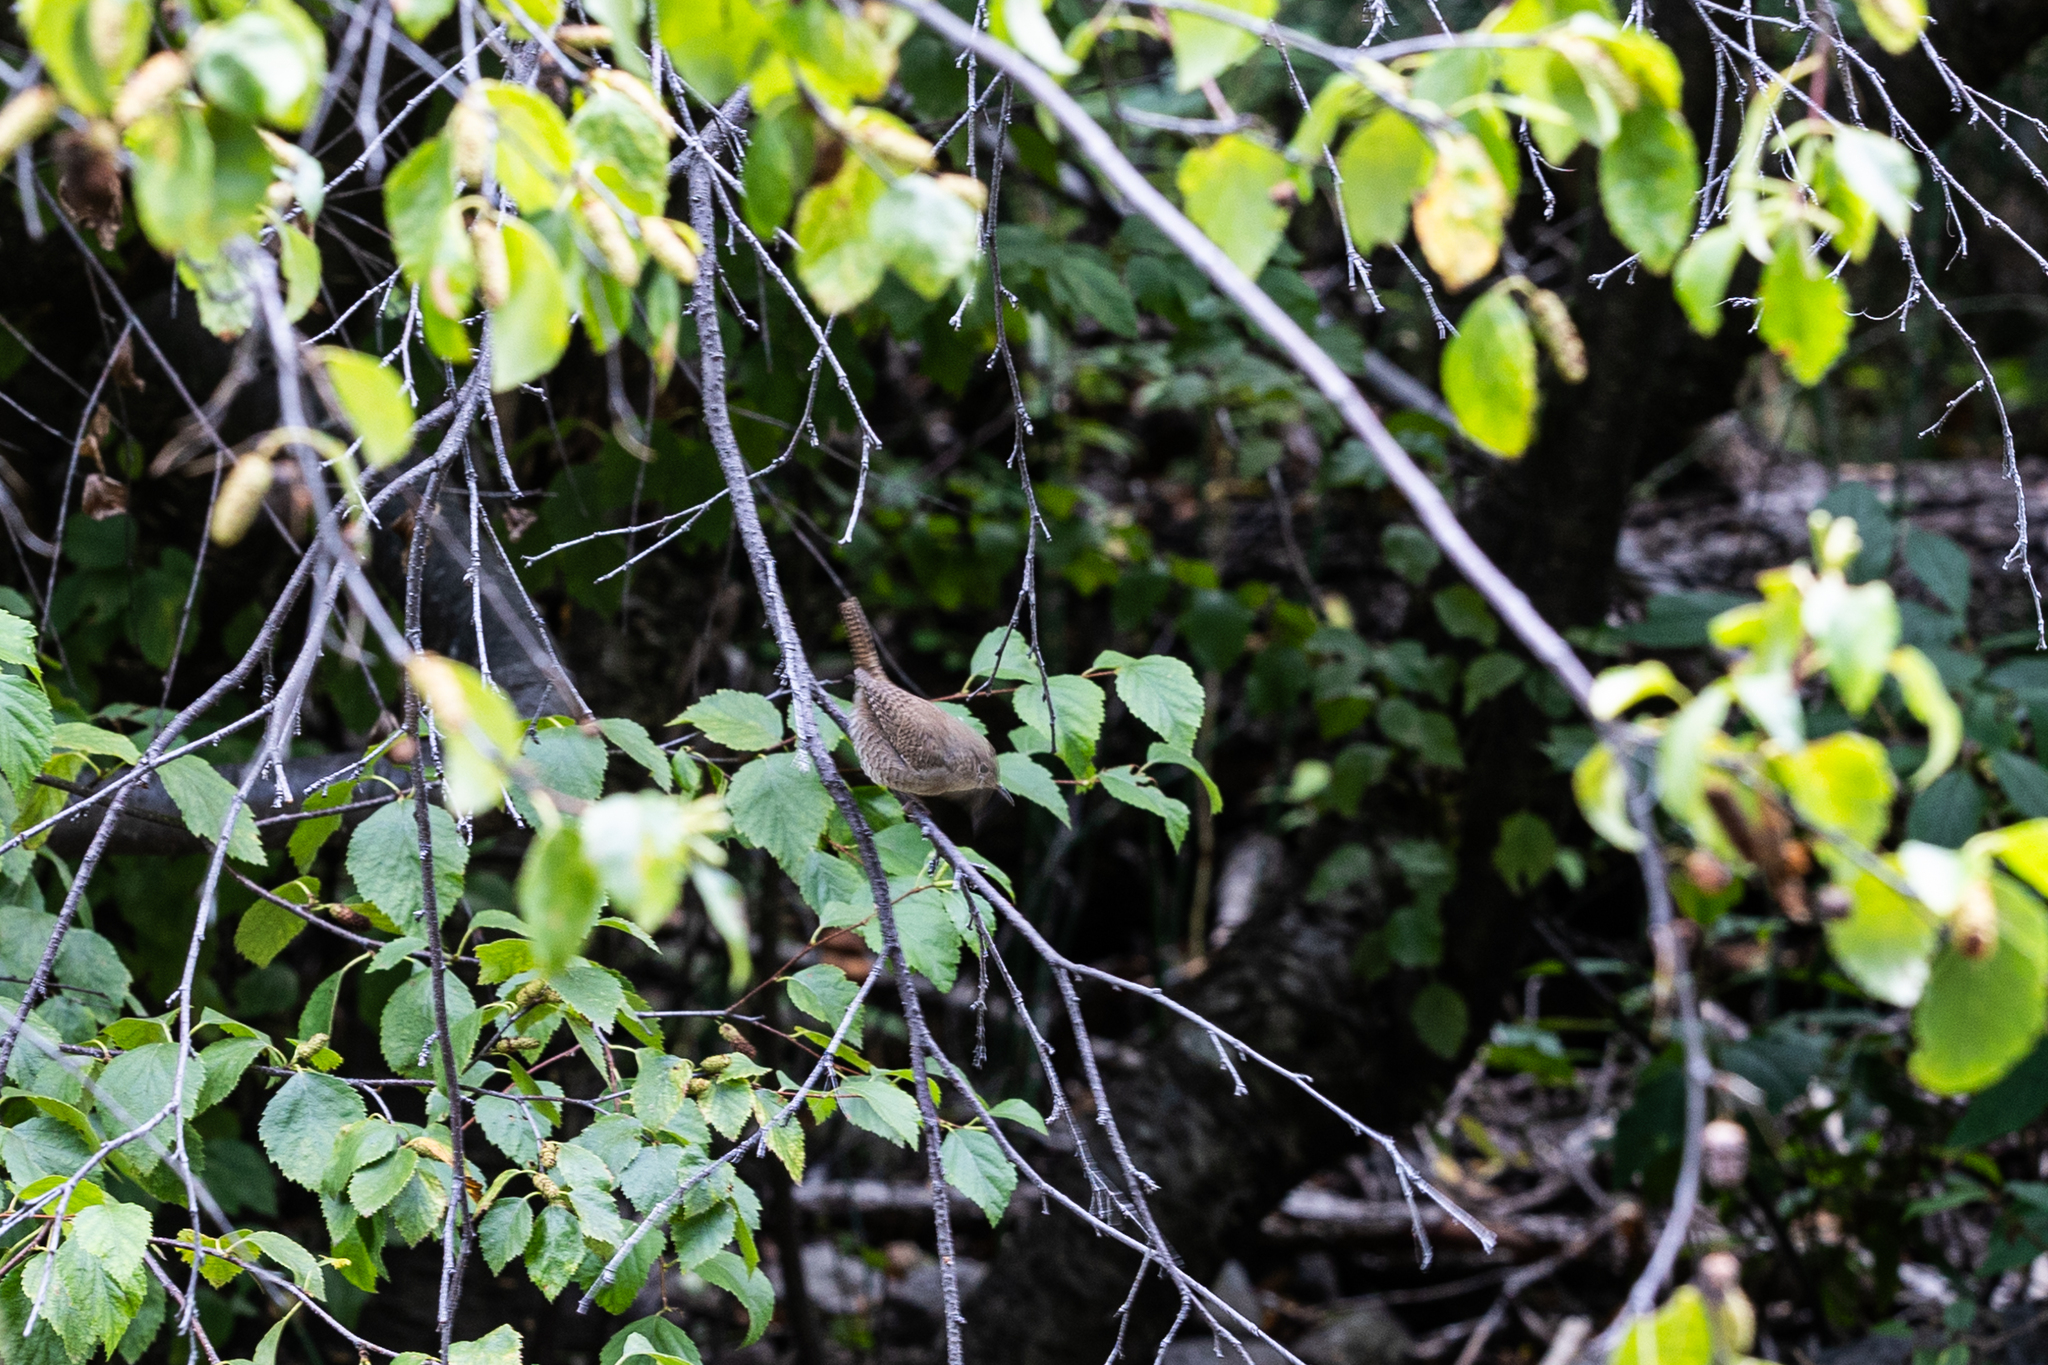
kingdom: Animalia
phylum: Chordata
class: Aves
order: Passeriformes
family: Troglodytidae
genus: Troglodytes
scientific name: Troglodytes aedon
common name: House wren
